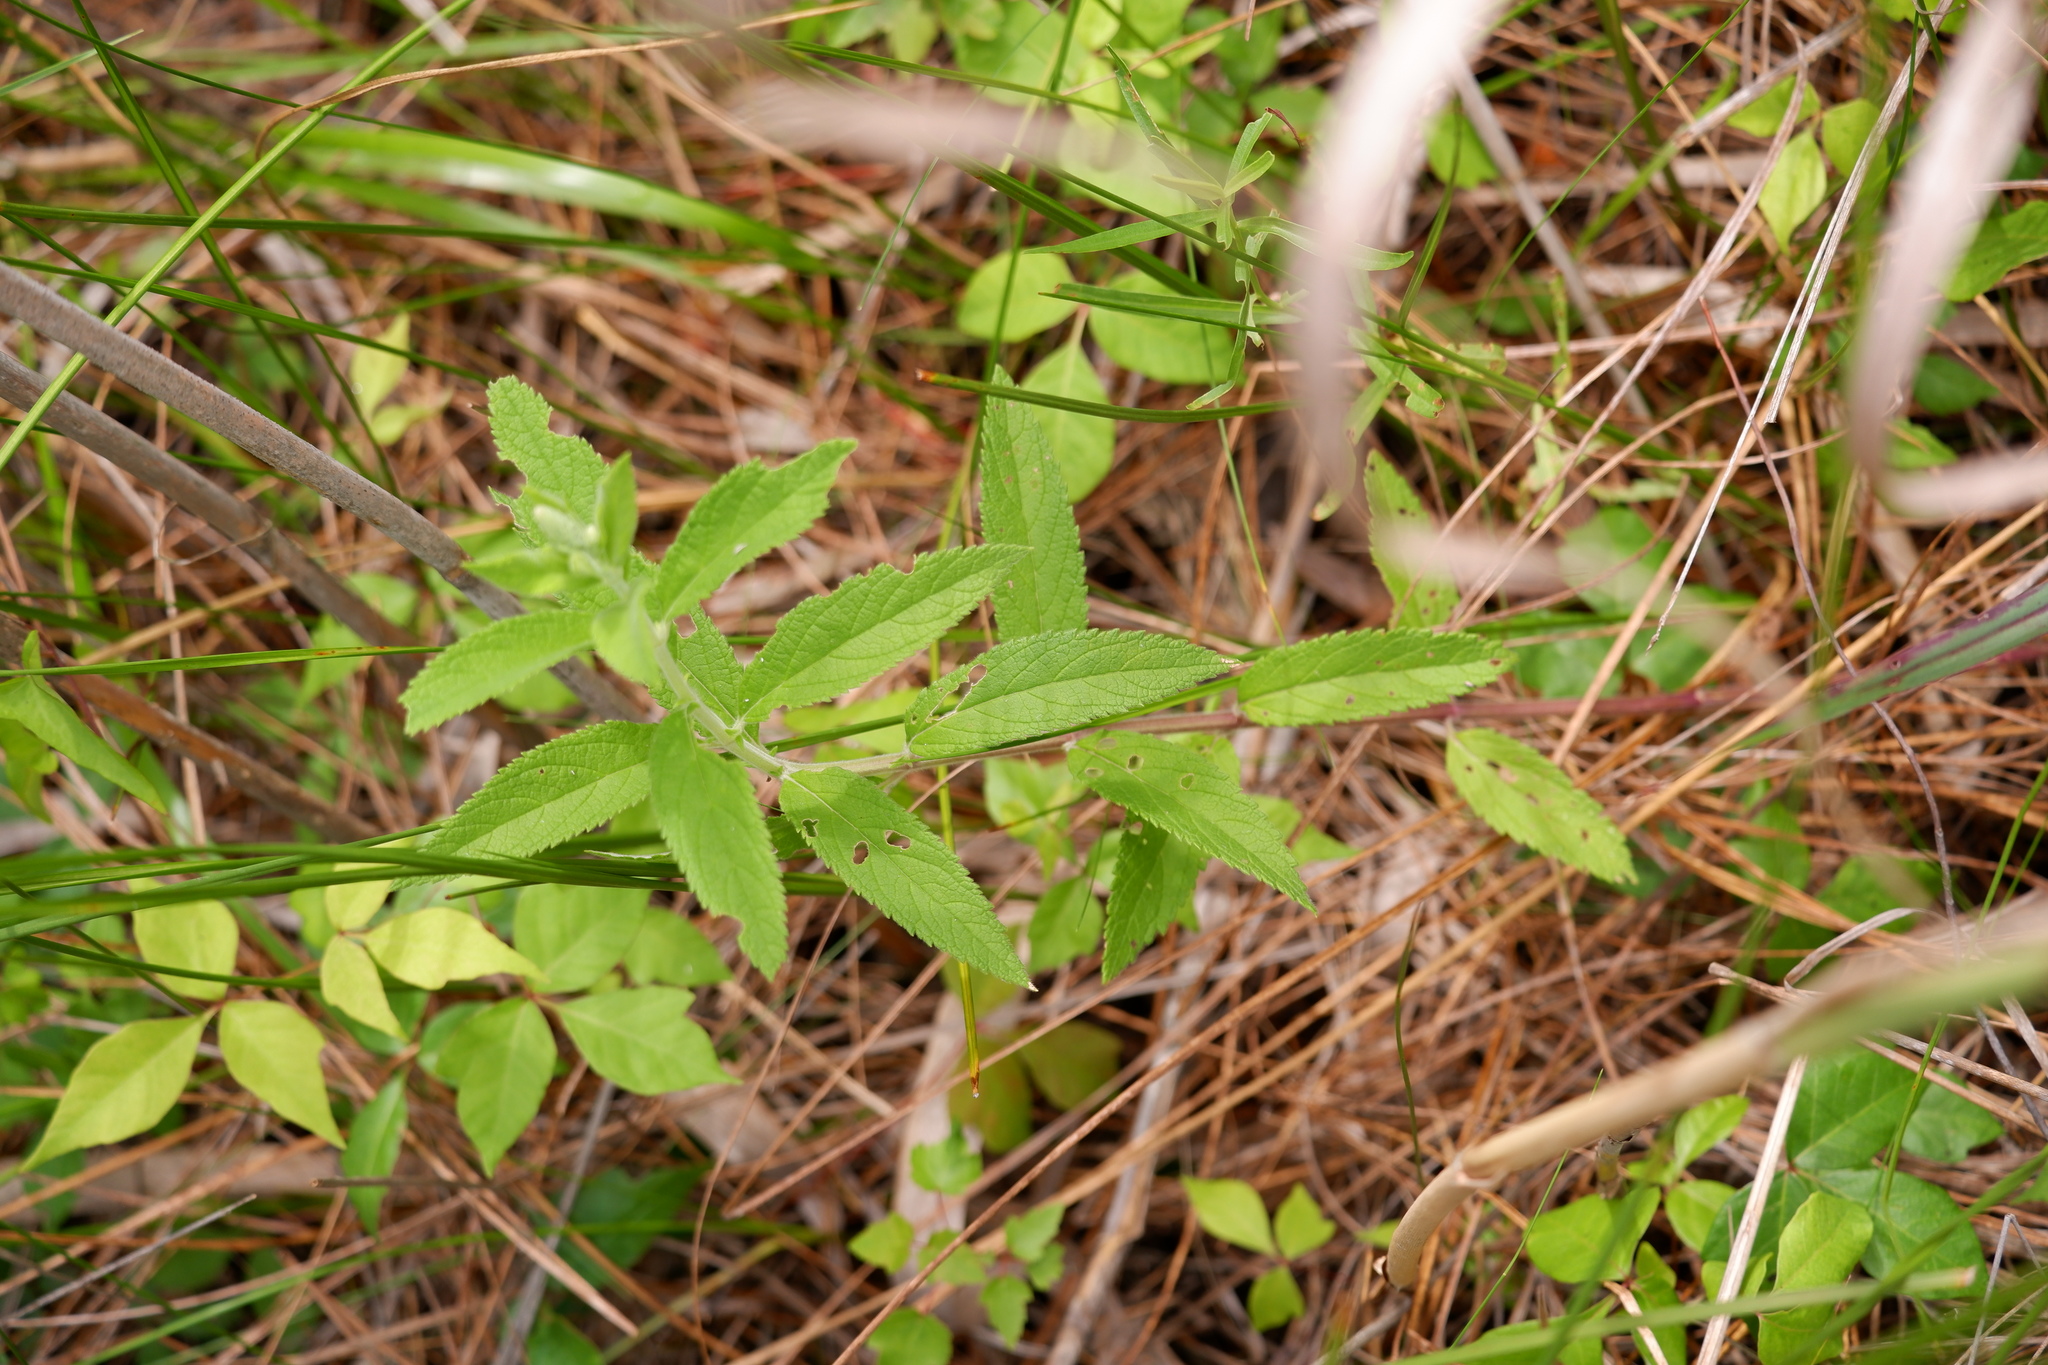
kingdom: Plantae
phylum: Tracheophyta
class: Magnoliopsida
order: Lamiales
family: Lamiaceae
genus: Teucrium
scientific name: Teucrium canadense
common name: American germander
